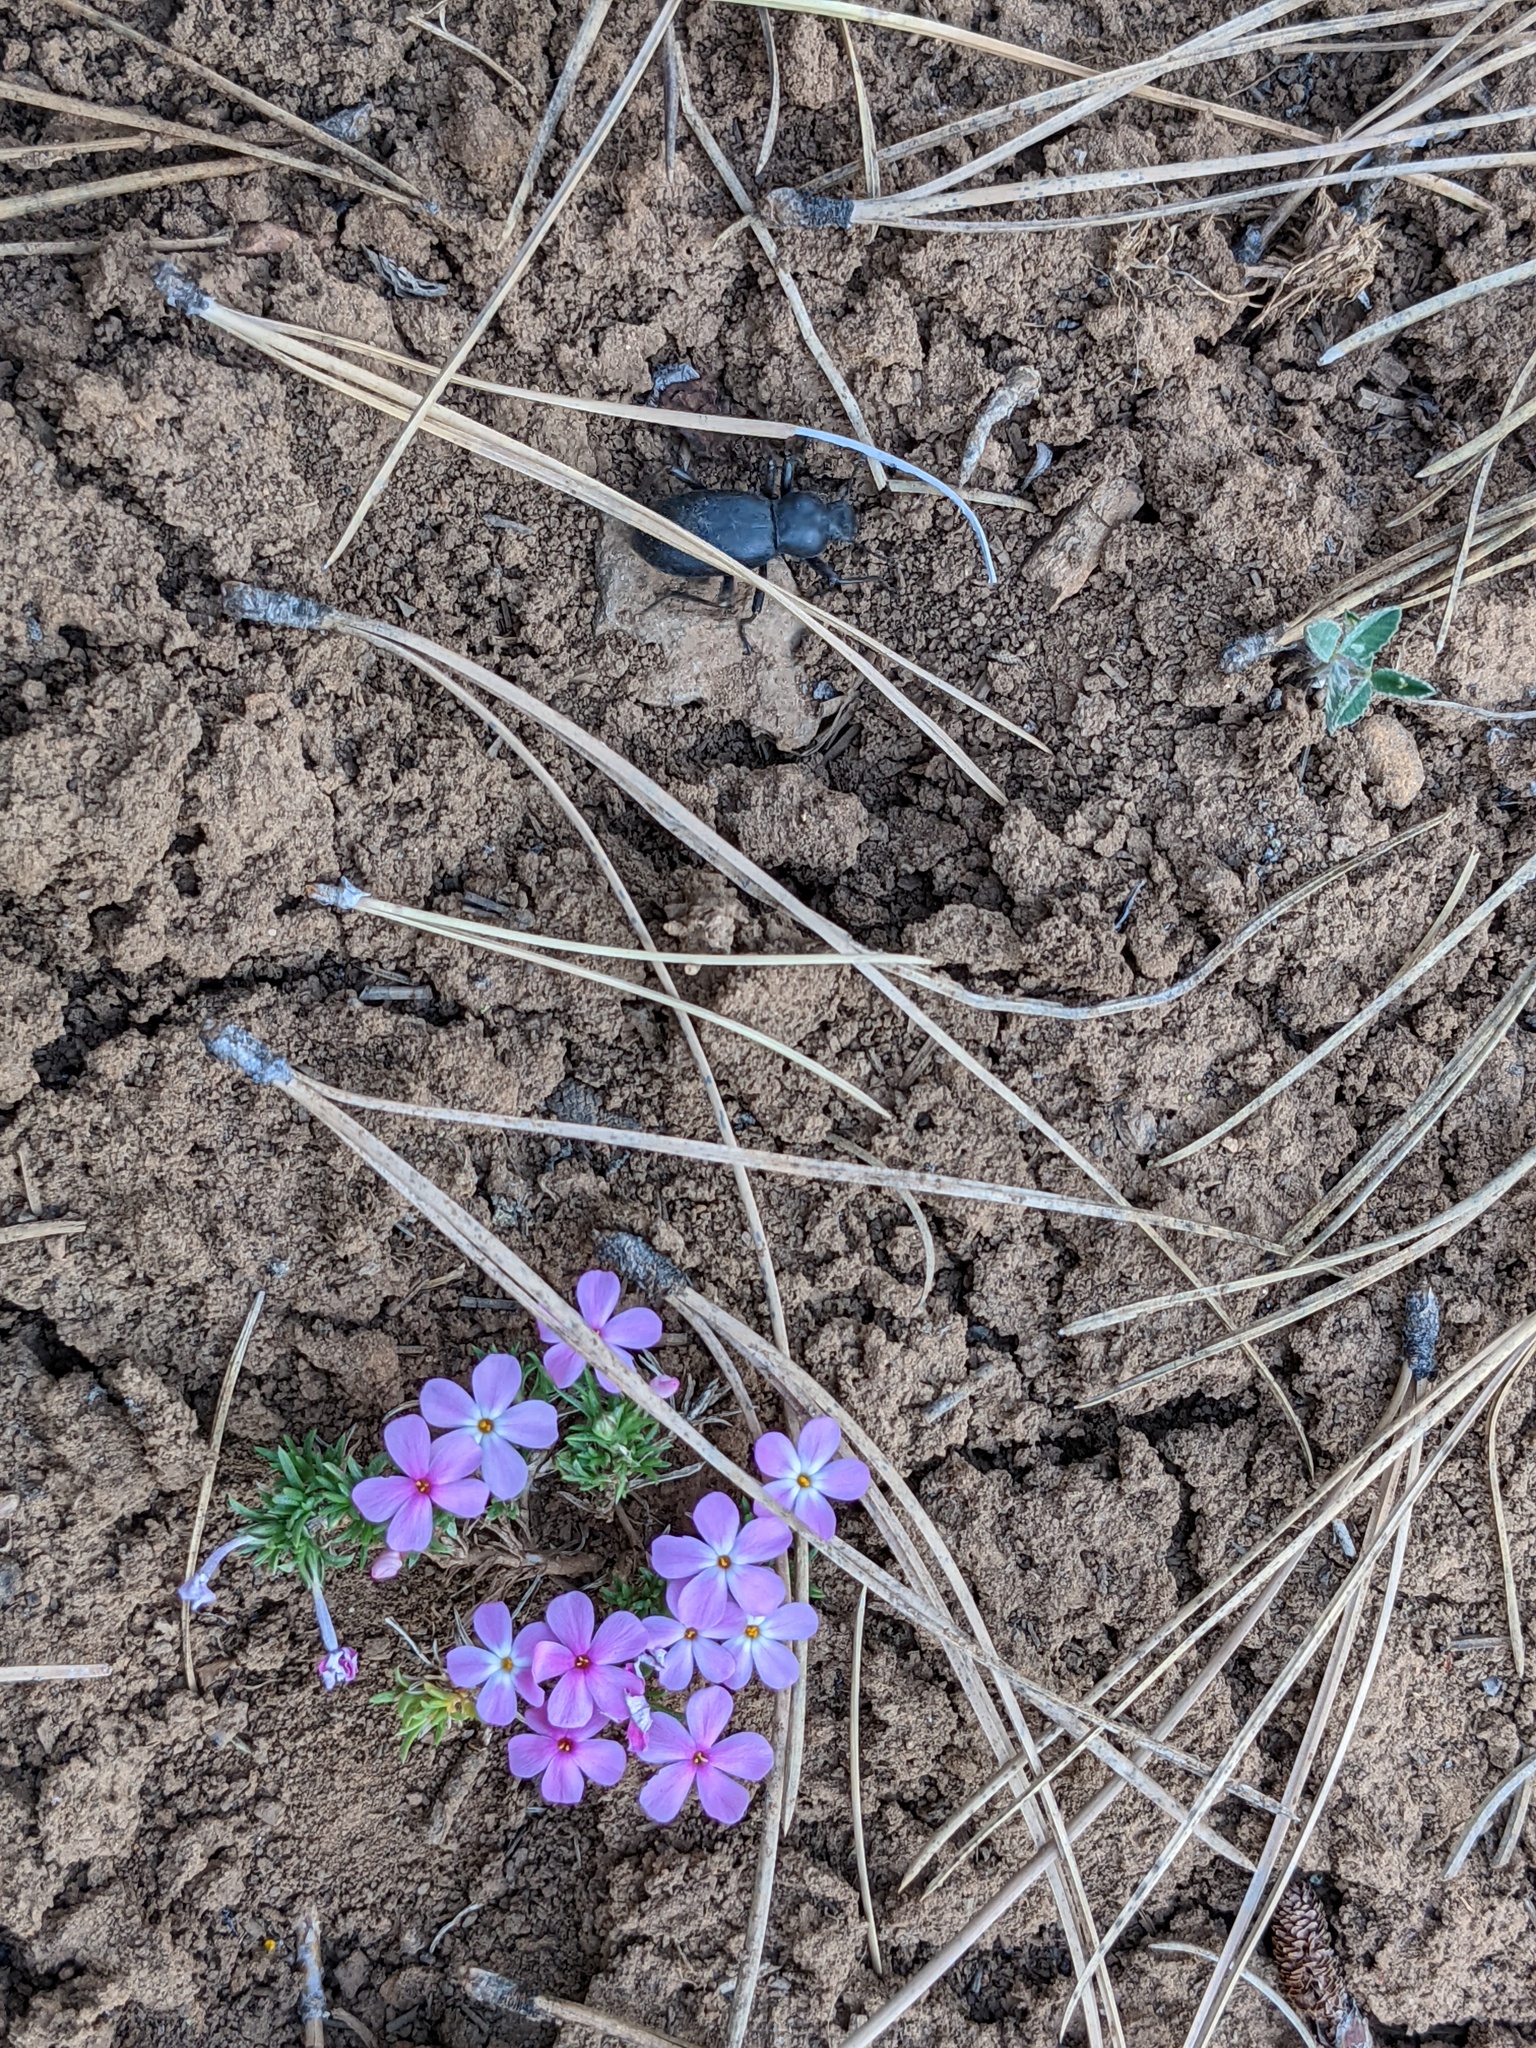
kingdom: Plantae
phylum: Tracheophyta
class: Magnoliopsida
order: Ericales
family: Polemoniaceae
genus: Phlox
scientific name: Phlox austromontana
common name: Desert phlox
